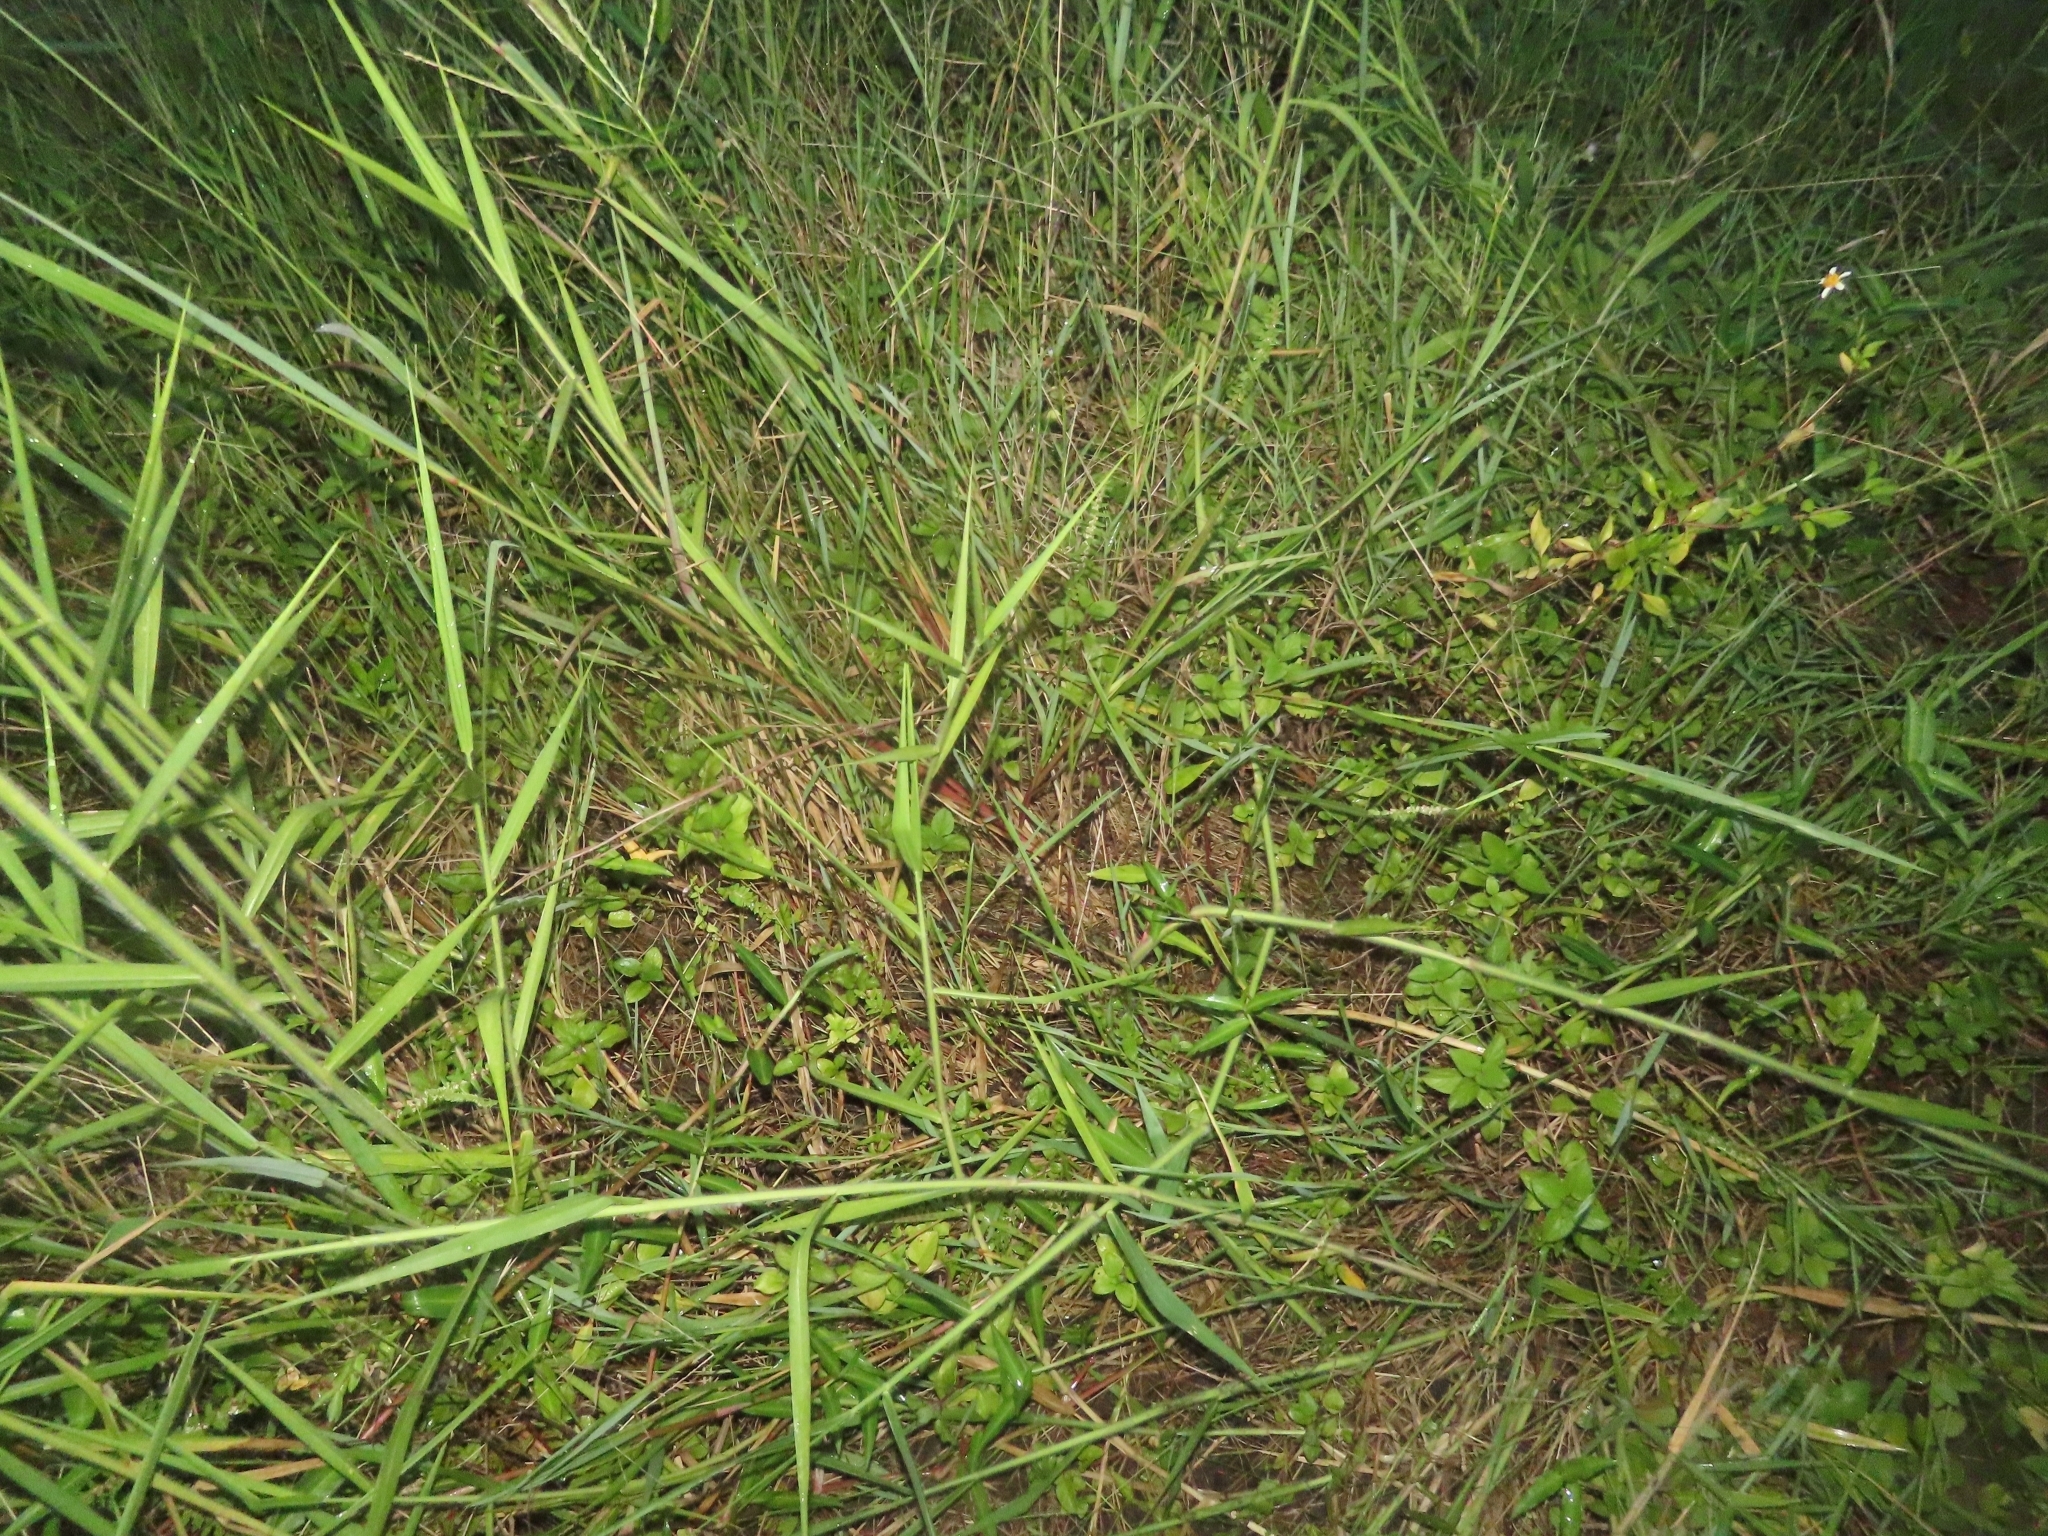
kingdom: Plantae
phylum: Tracheophyta
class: Magnoliopsida
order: Rosales
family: Urticaceae
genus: Gonostegia
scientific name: Gonostegia pentandra
